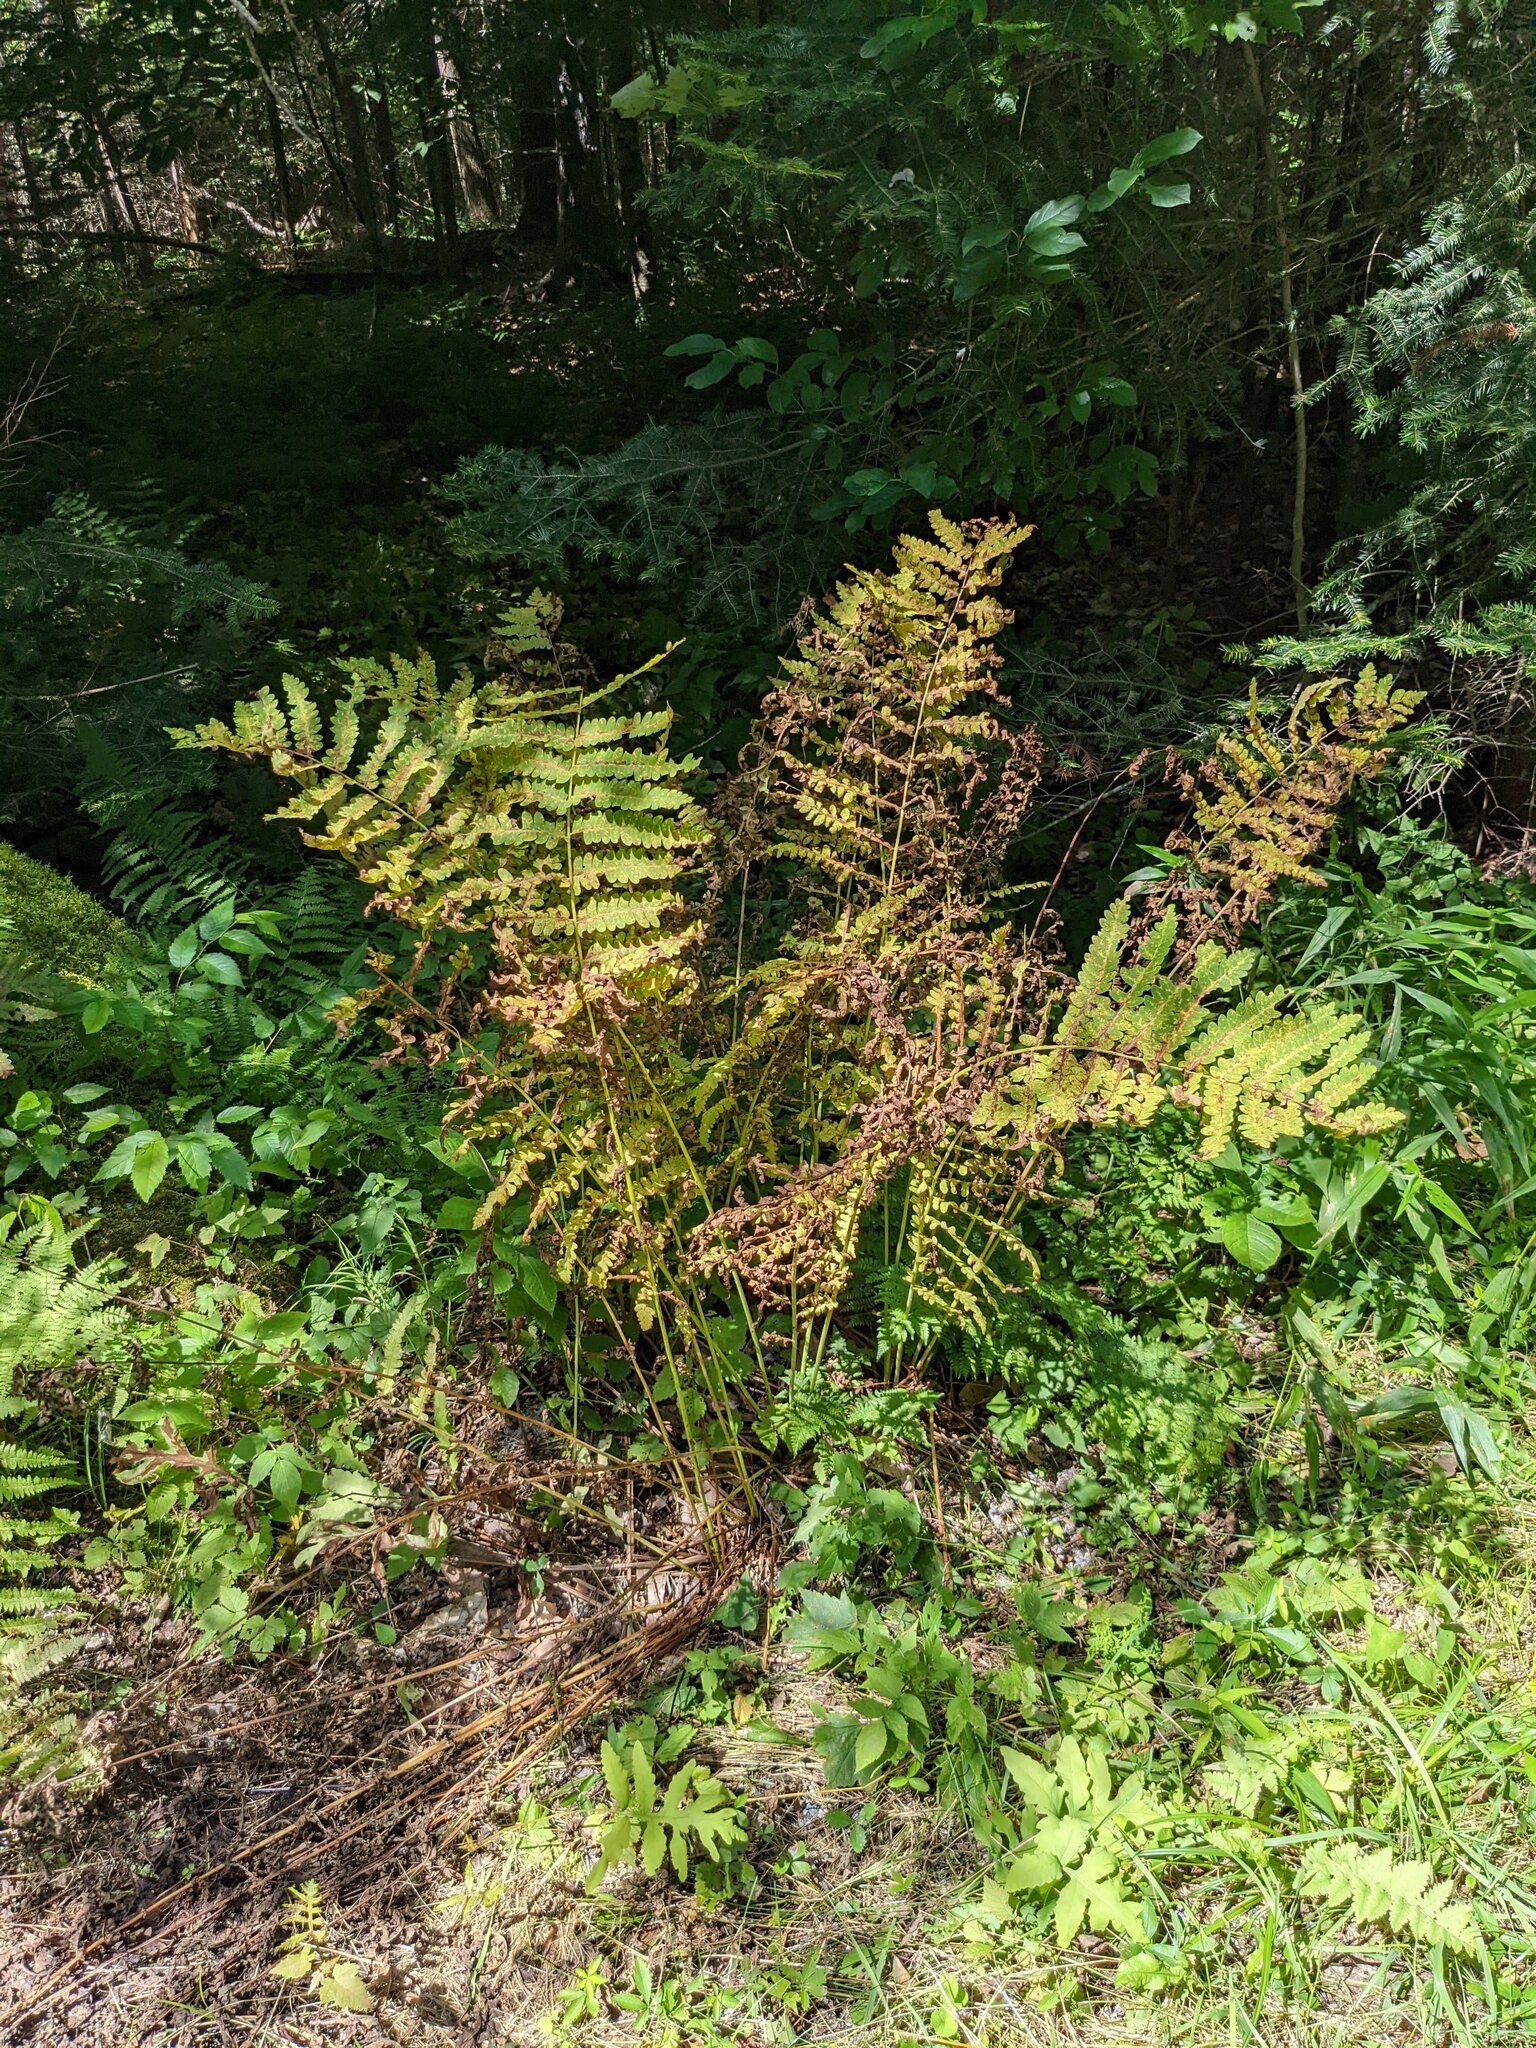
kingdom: Plantae
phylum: Tracheophyta
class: Polypodiopsida
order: Osmundales
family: Osmundaceae
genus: Claytosmunda
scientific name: Claytosmunda claytoniana
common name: Clayton's fern
